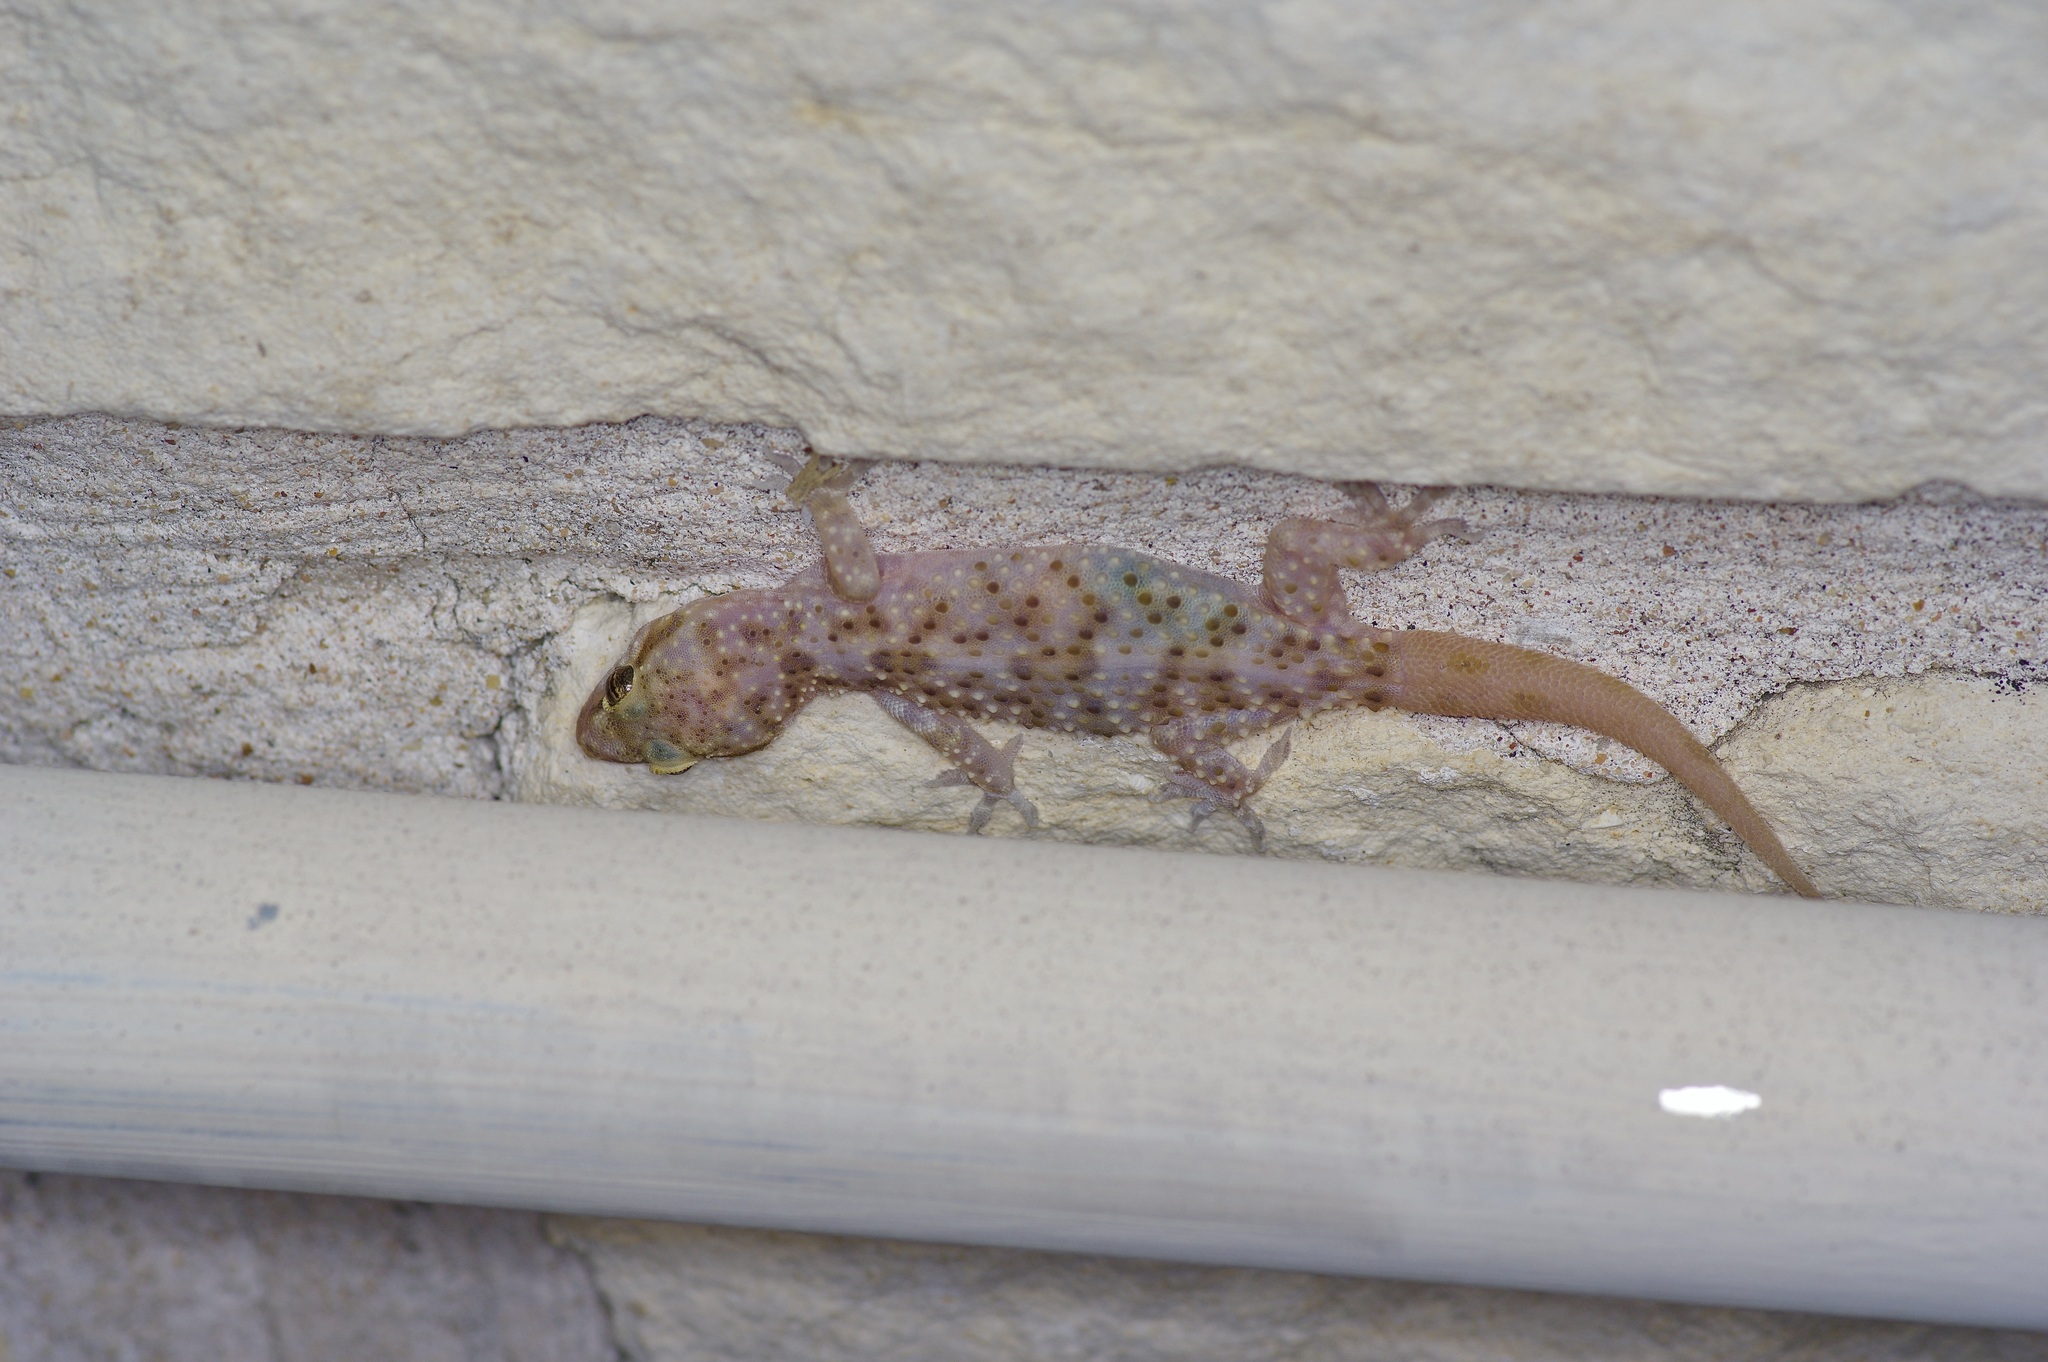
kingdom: Animalia
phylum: Chordata
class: Squamata
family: Gekkonidae
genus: Hemidactylus
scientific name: Hemidactylus turcicus
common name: Turkish gecko
